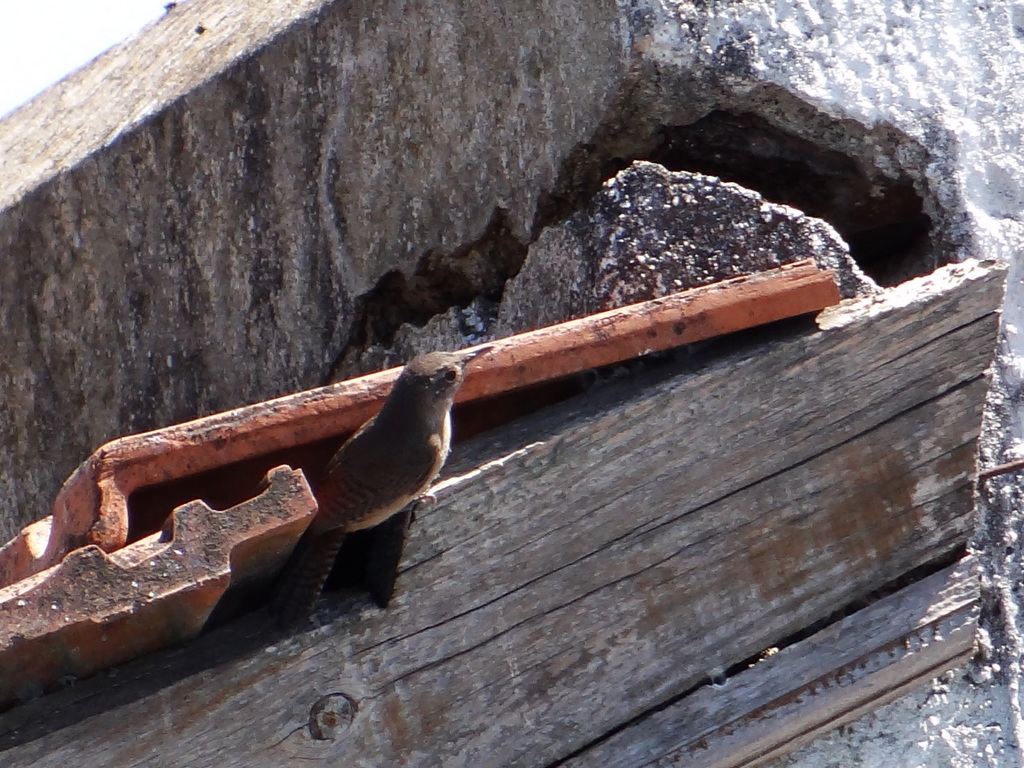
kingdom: Animalia
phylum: Chordata
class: Aves
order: Passeriformes
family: Troglodytidae
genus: Troglodytes
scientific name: Troglodytes aedon
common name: House wren
